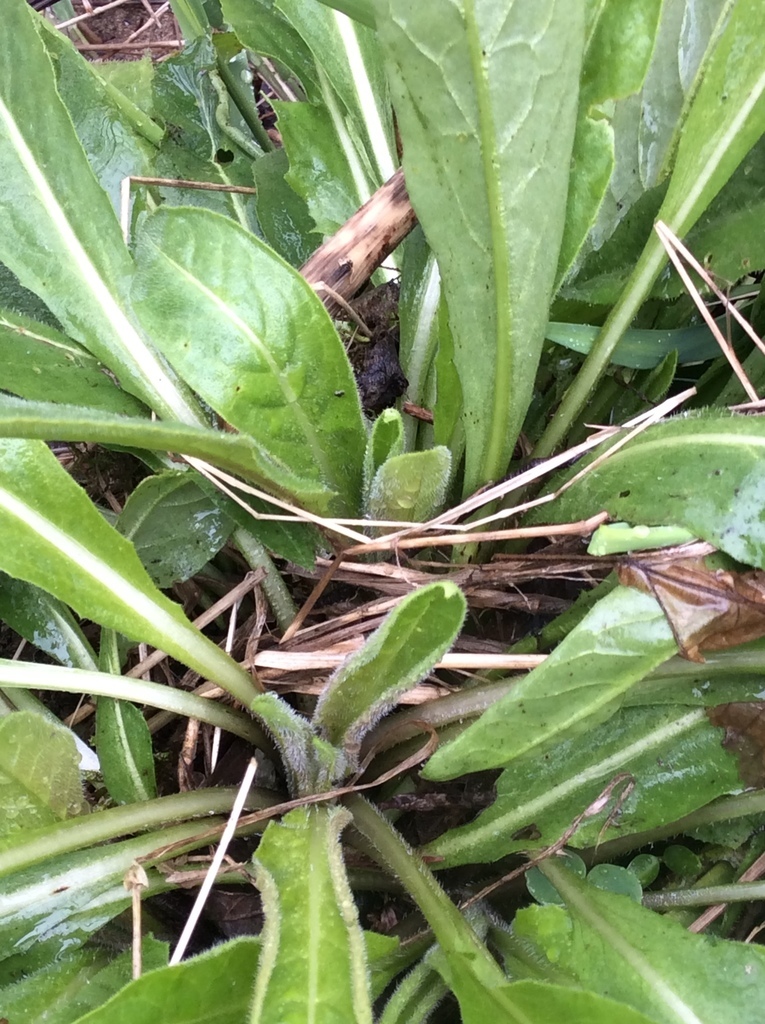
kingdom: Plantae
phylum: Tracheophyta
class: Magnoliopsida
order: Brassicales
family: Brassicaceae
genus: Hesperis
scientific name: Hesperis matronalis
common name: Dame's-violet
